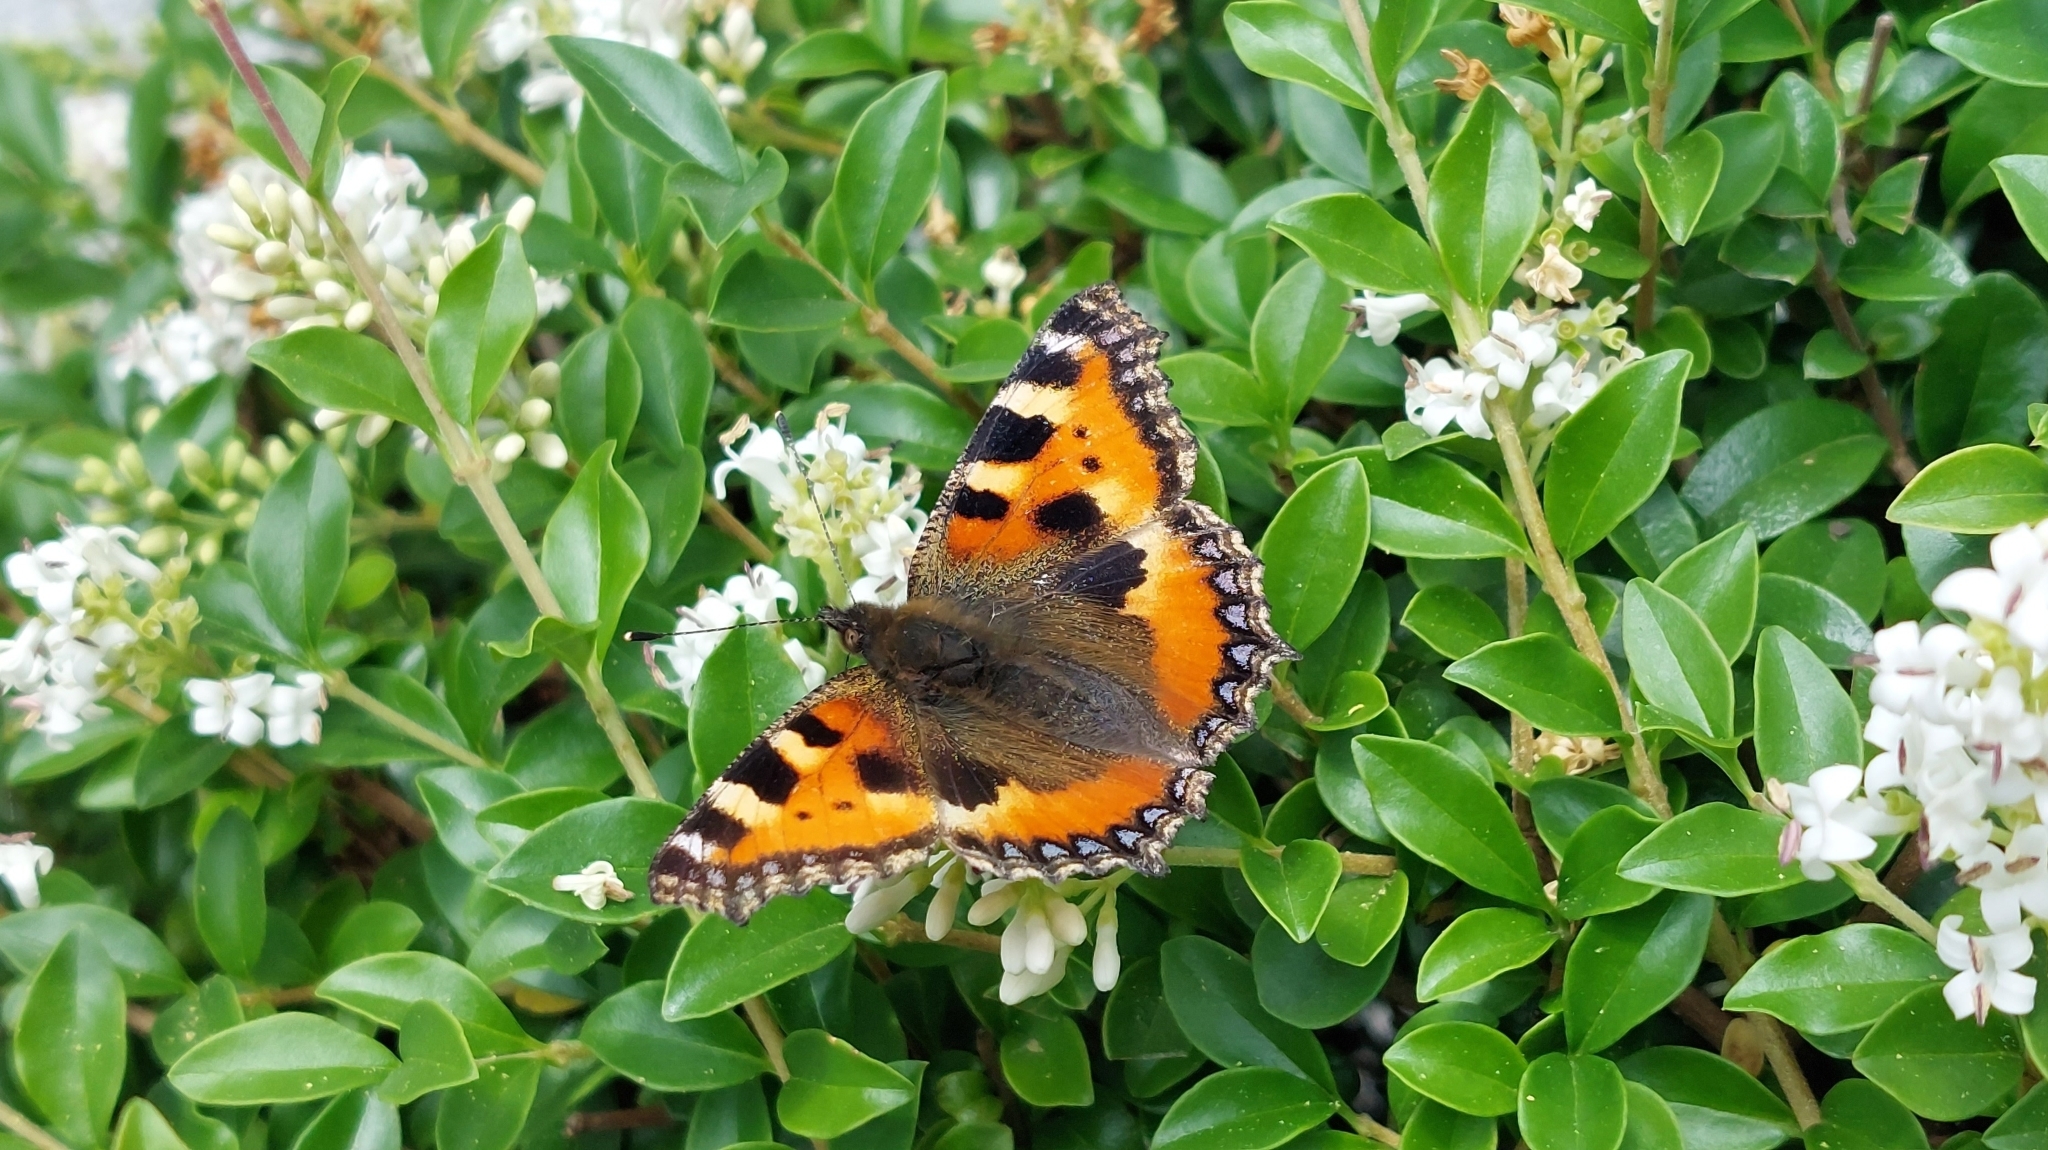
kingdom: Animalia
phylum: Arthropoda
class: Insecta
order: Lepidoptera
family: Nymphalidae
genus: Aglais
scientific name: Aglais urticae
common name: Small tortoiseshell
